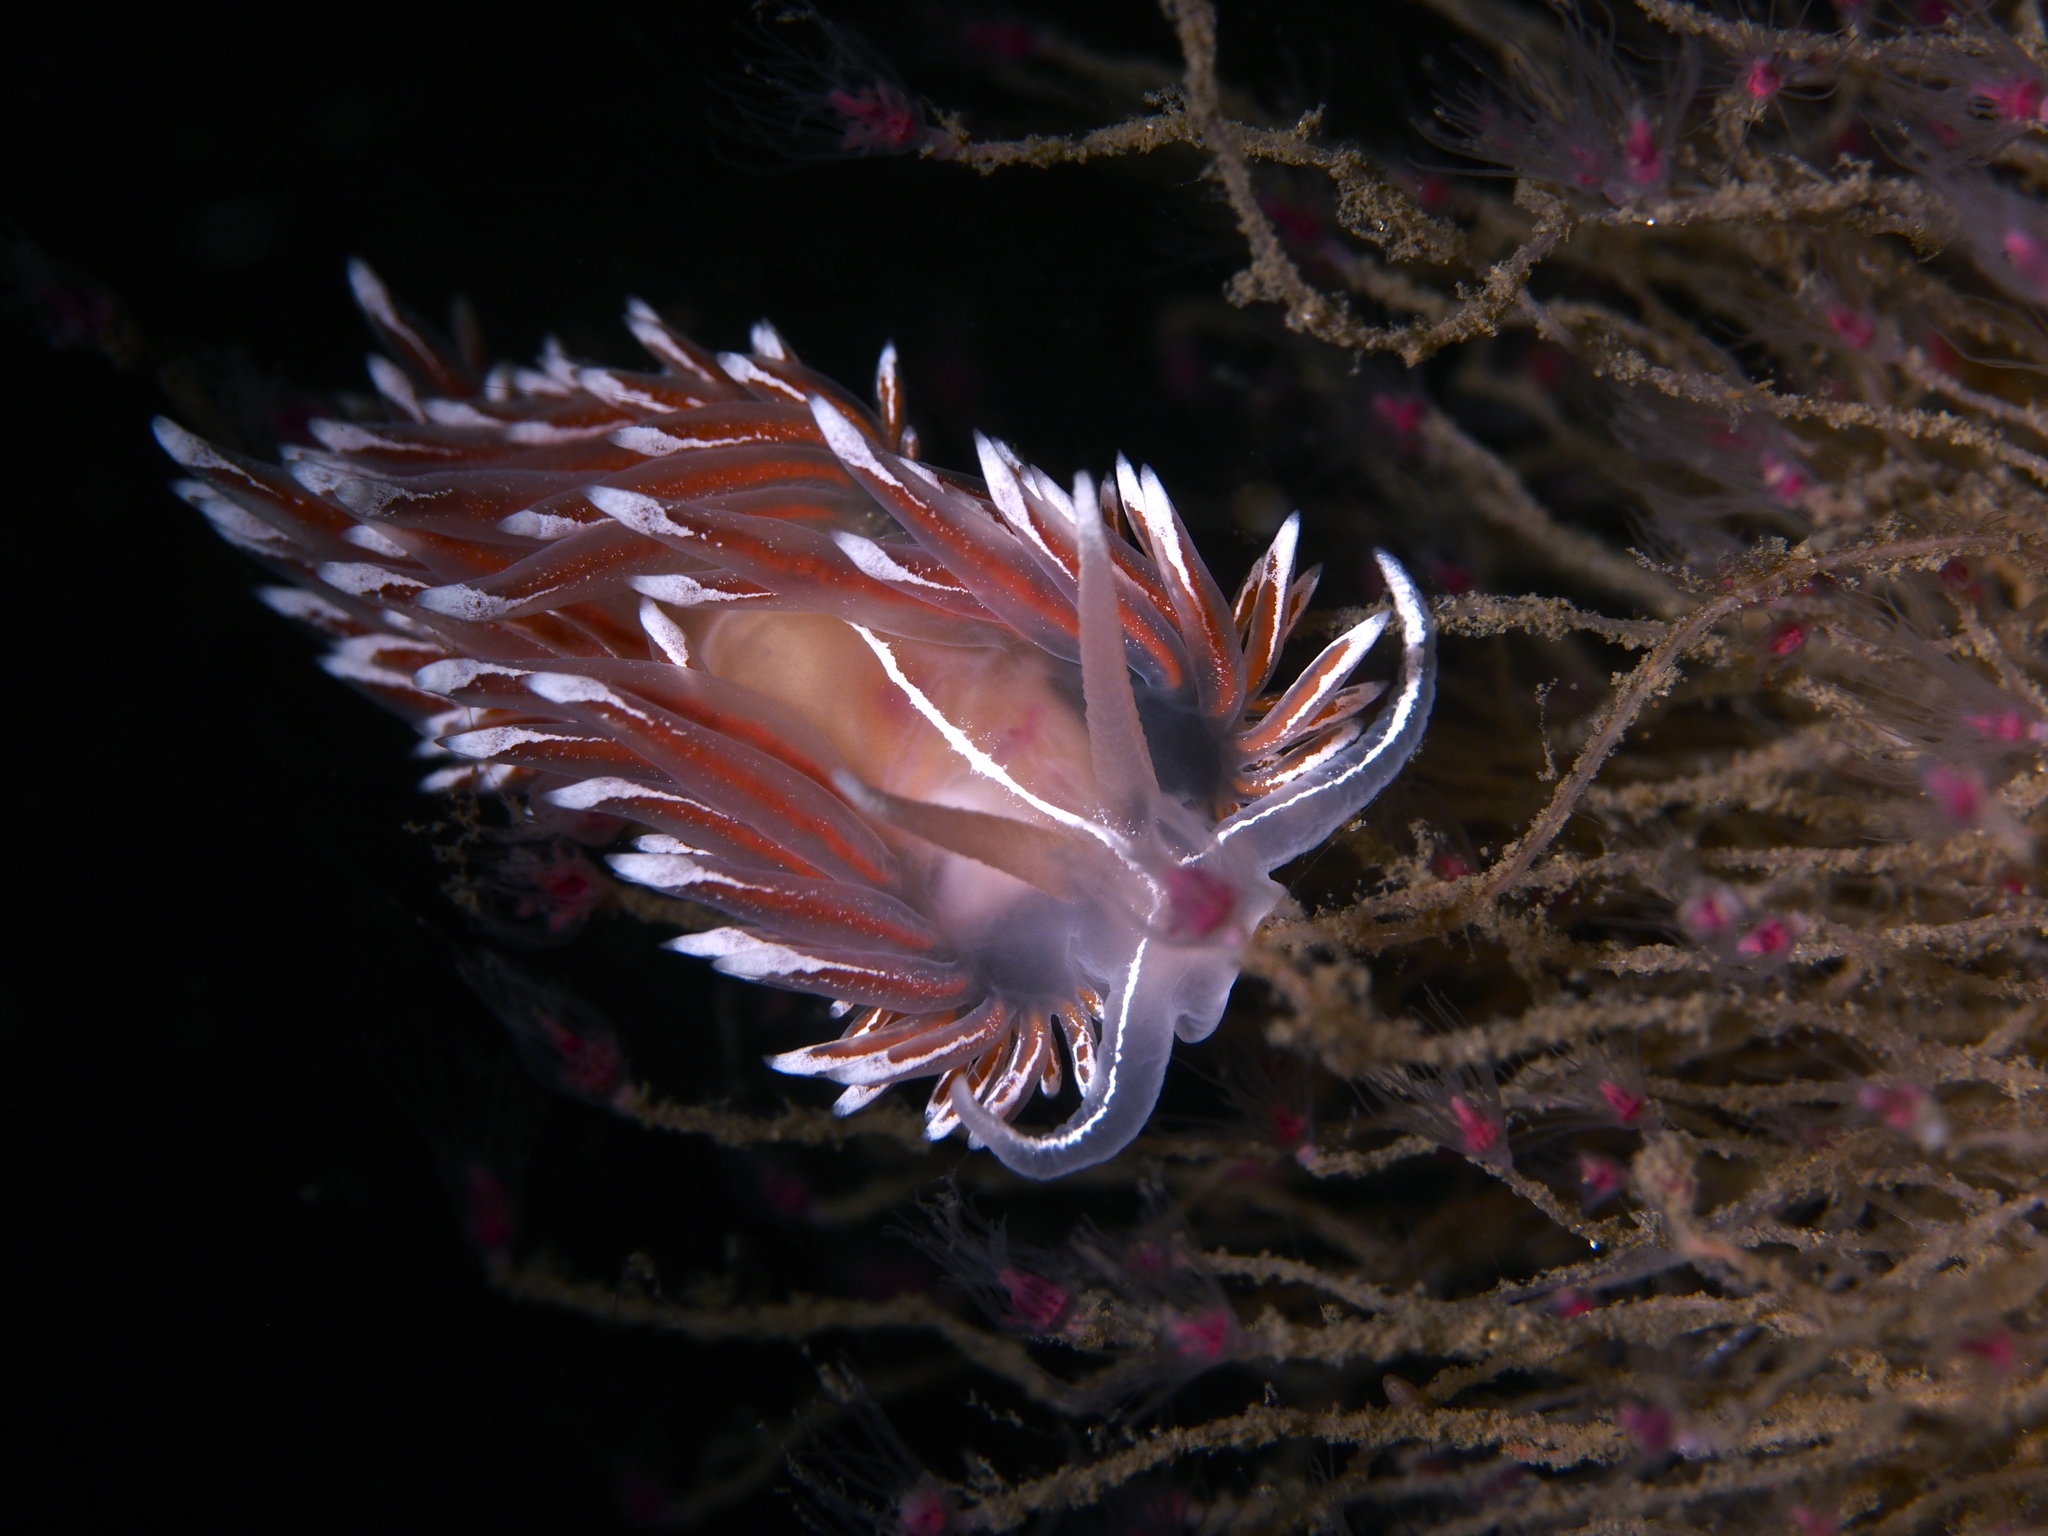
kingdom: Animalia
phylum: Mollusca
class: Gastropoda
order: Nudibranchia
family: Coryphellidae
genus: Coryphella
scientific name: Coryphella lineata
